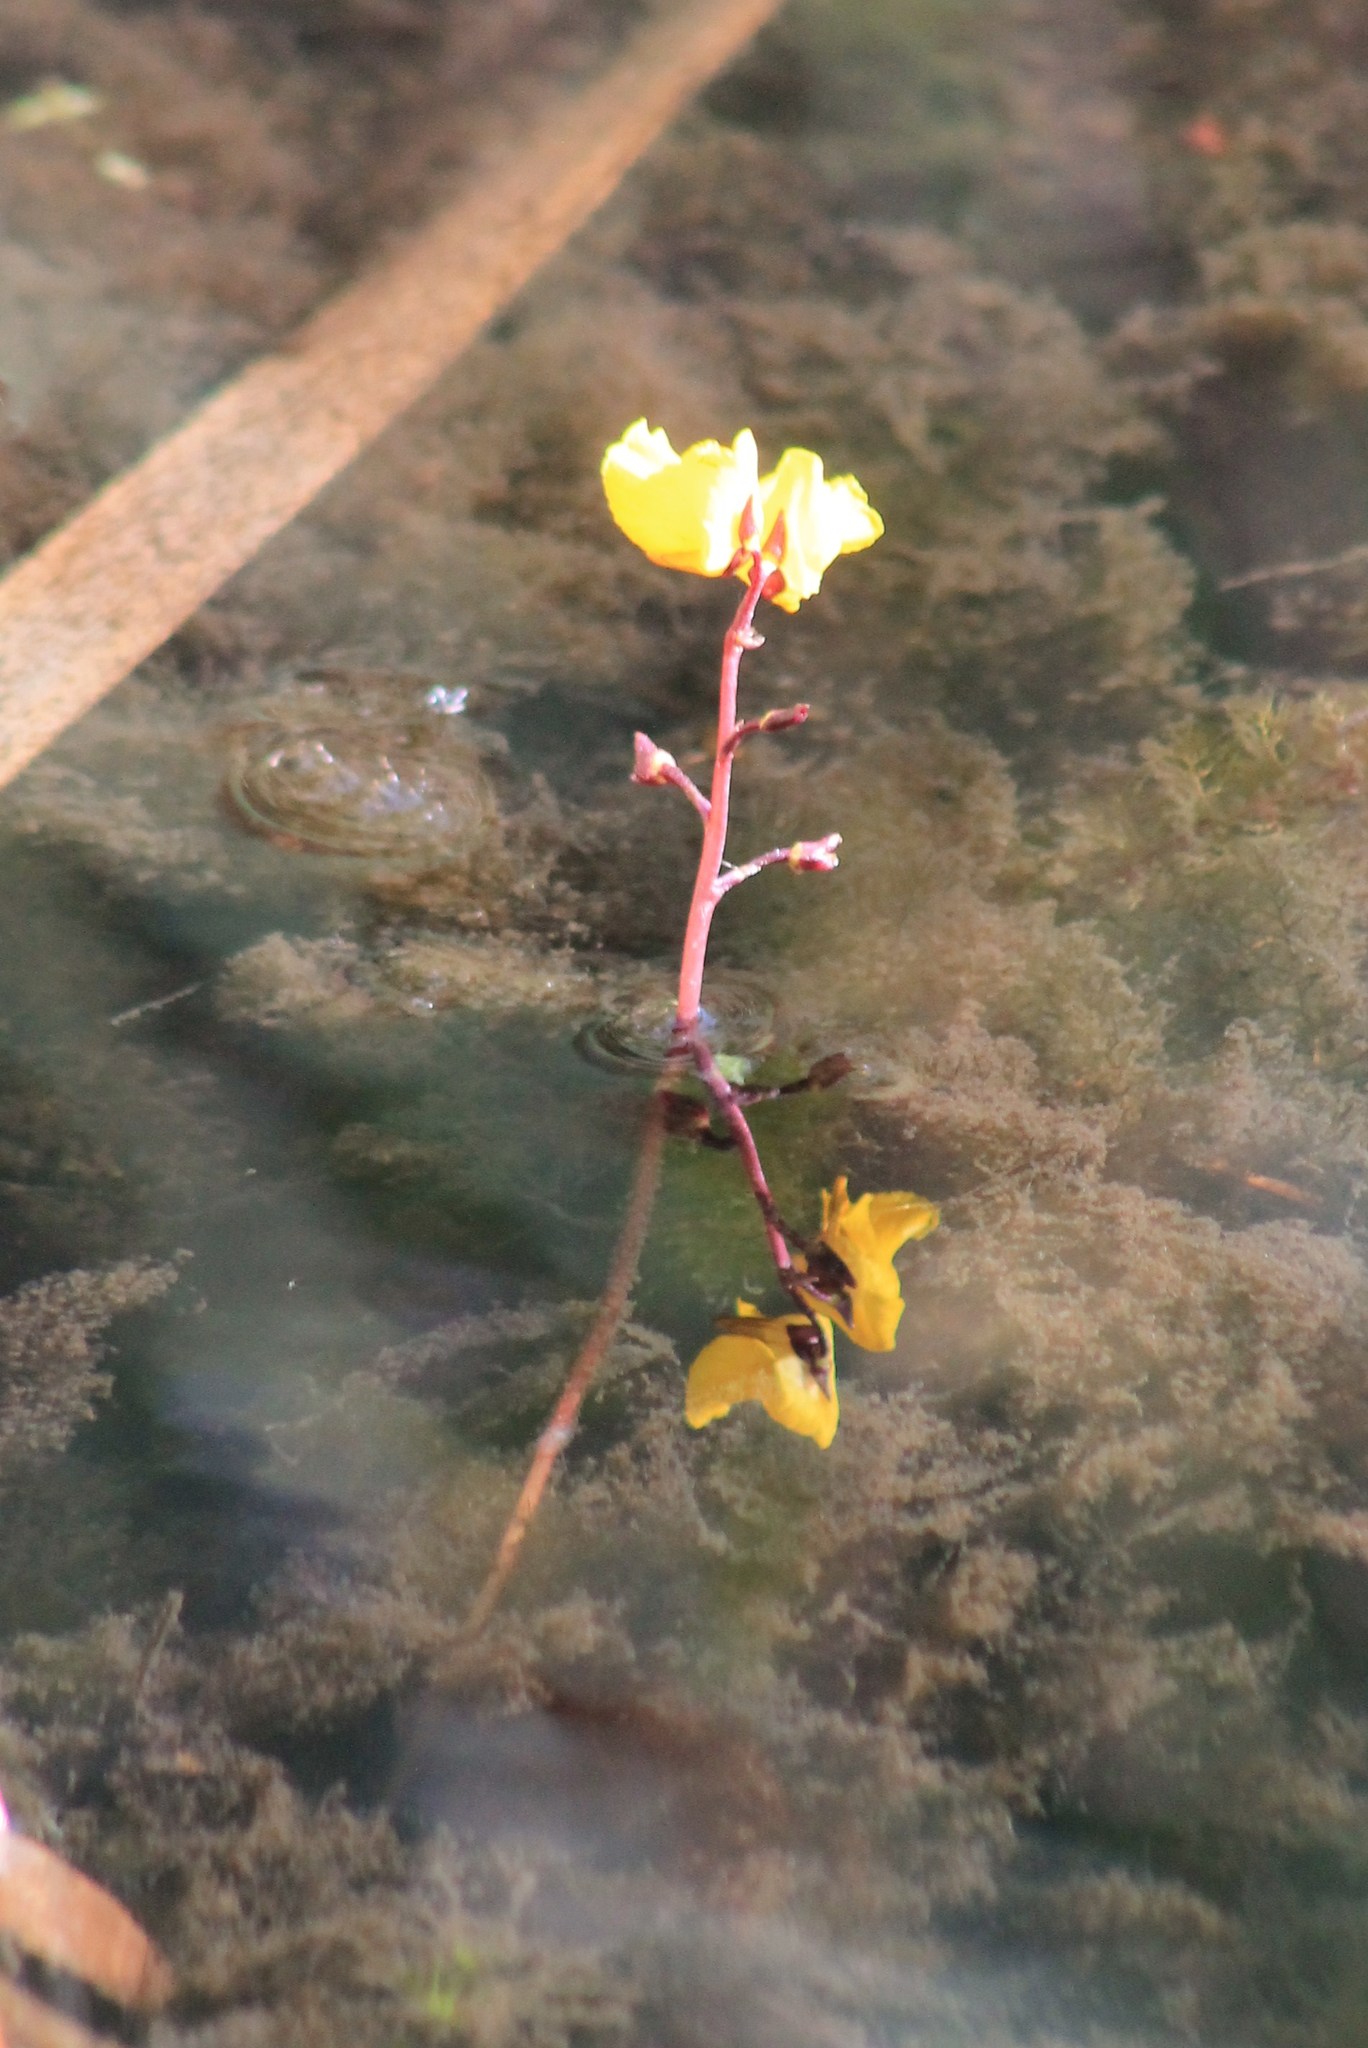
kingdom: Plantae
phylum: Tracheophyta
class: Magnoliopsida
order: Lamiales
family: Lentibulariaceae
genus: Utricularia
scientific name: Utricularia vulgaris
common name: Greater bladderwort
